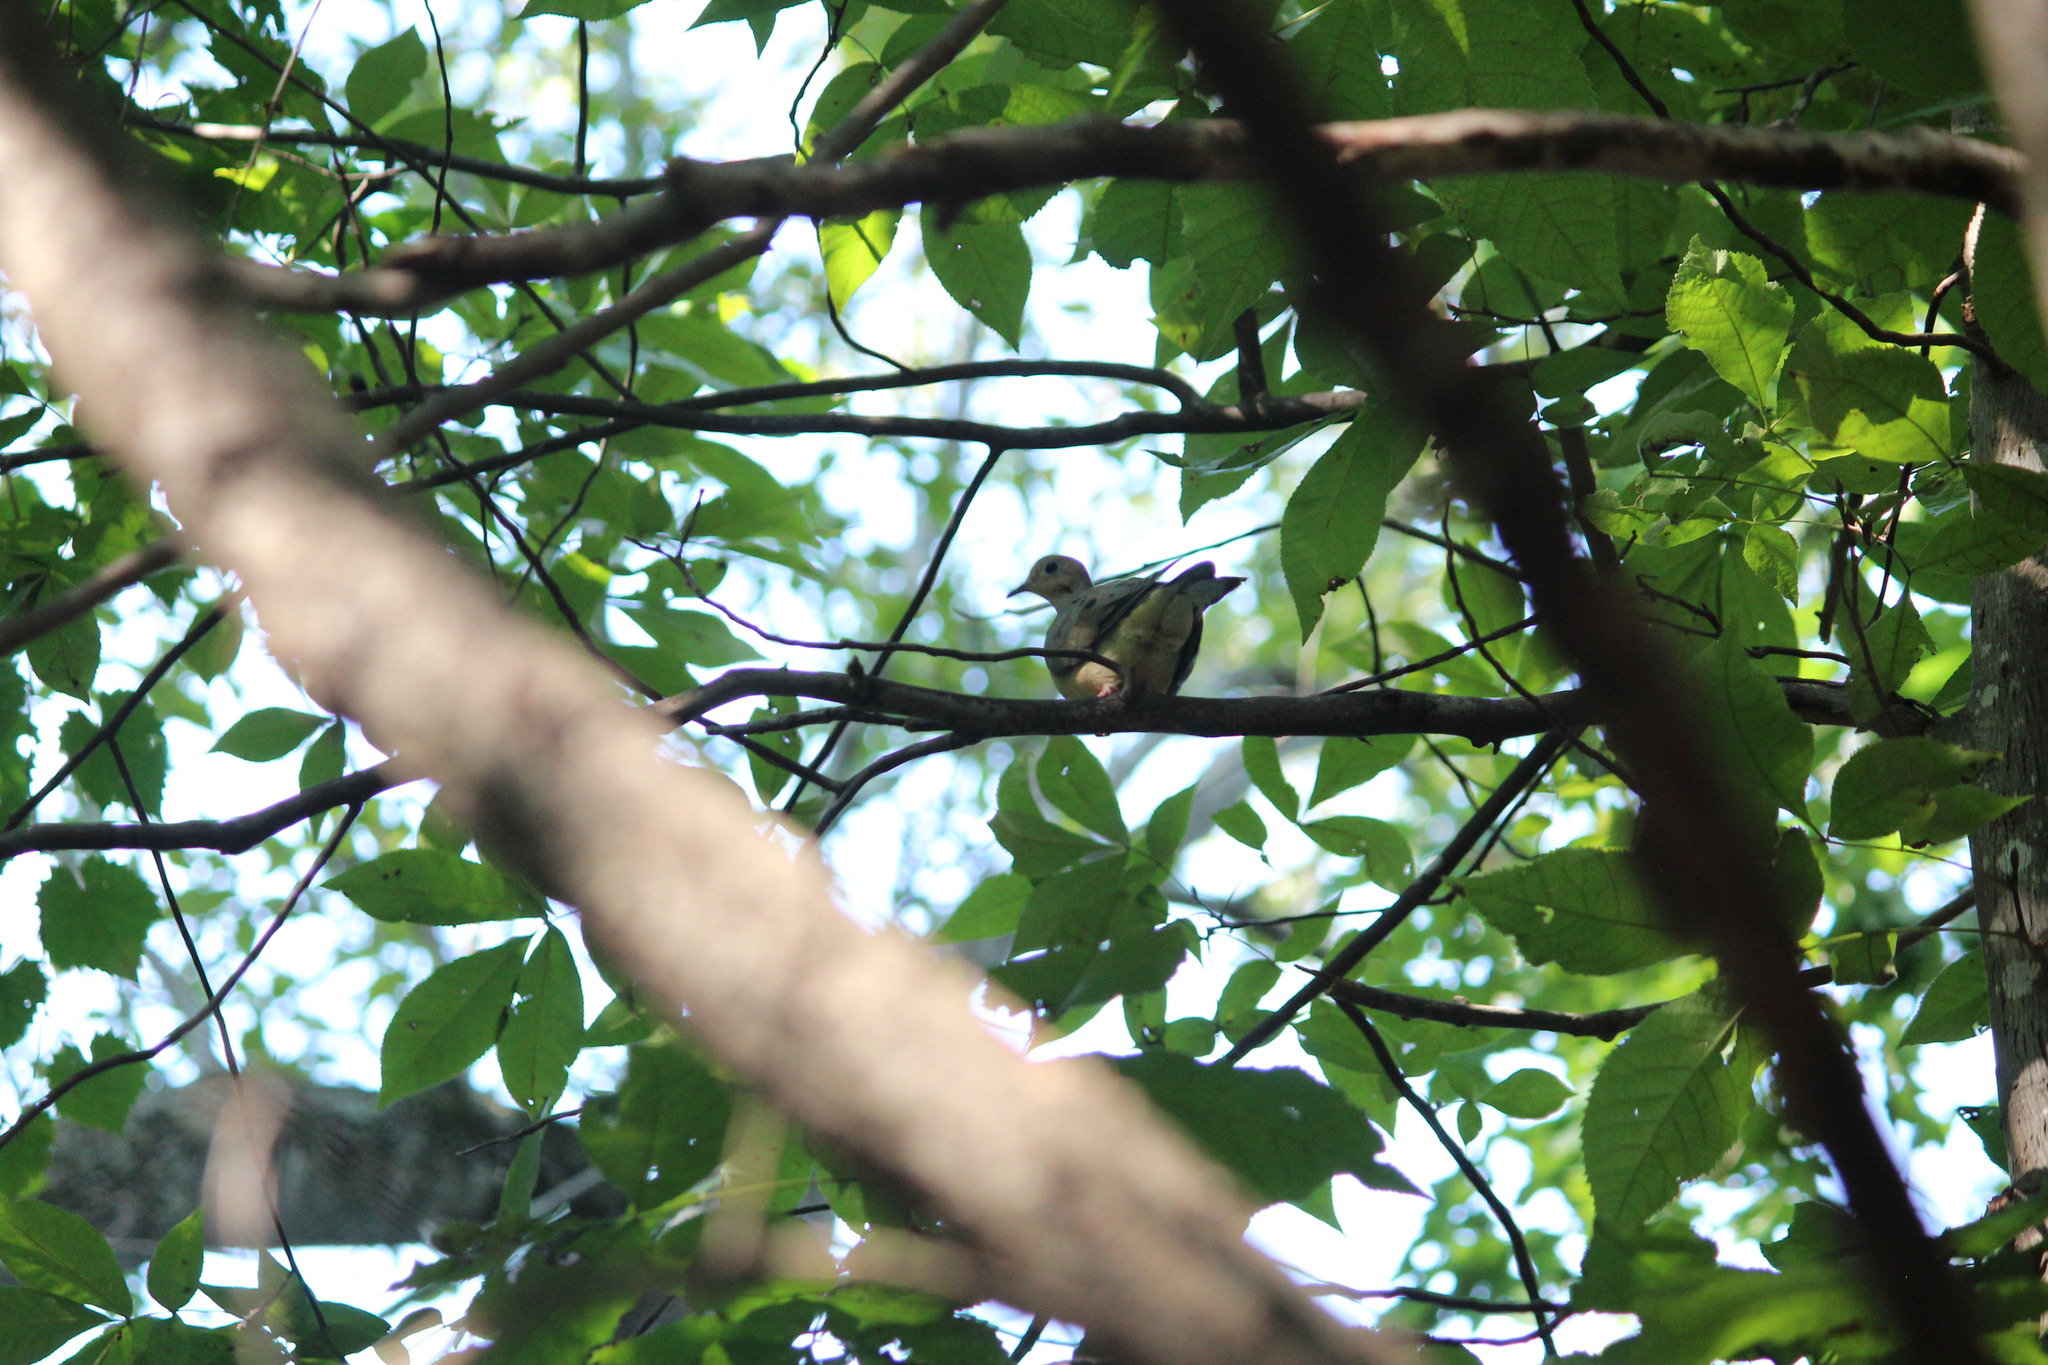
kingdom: Animalia
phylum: Chordata
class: Aves
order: Columbiformes
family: Columbidae
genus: Zenaida
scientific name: Zenaida macroura
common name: Mourning dove
